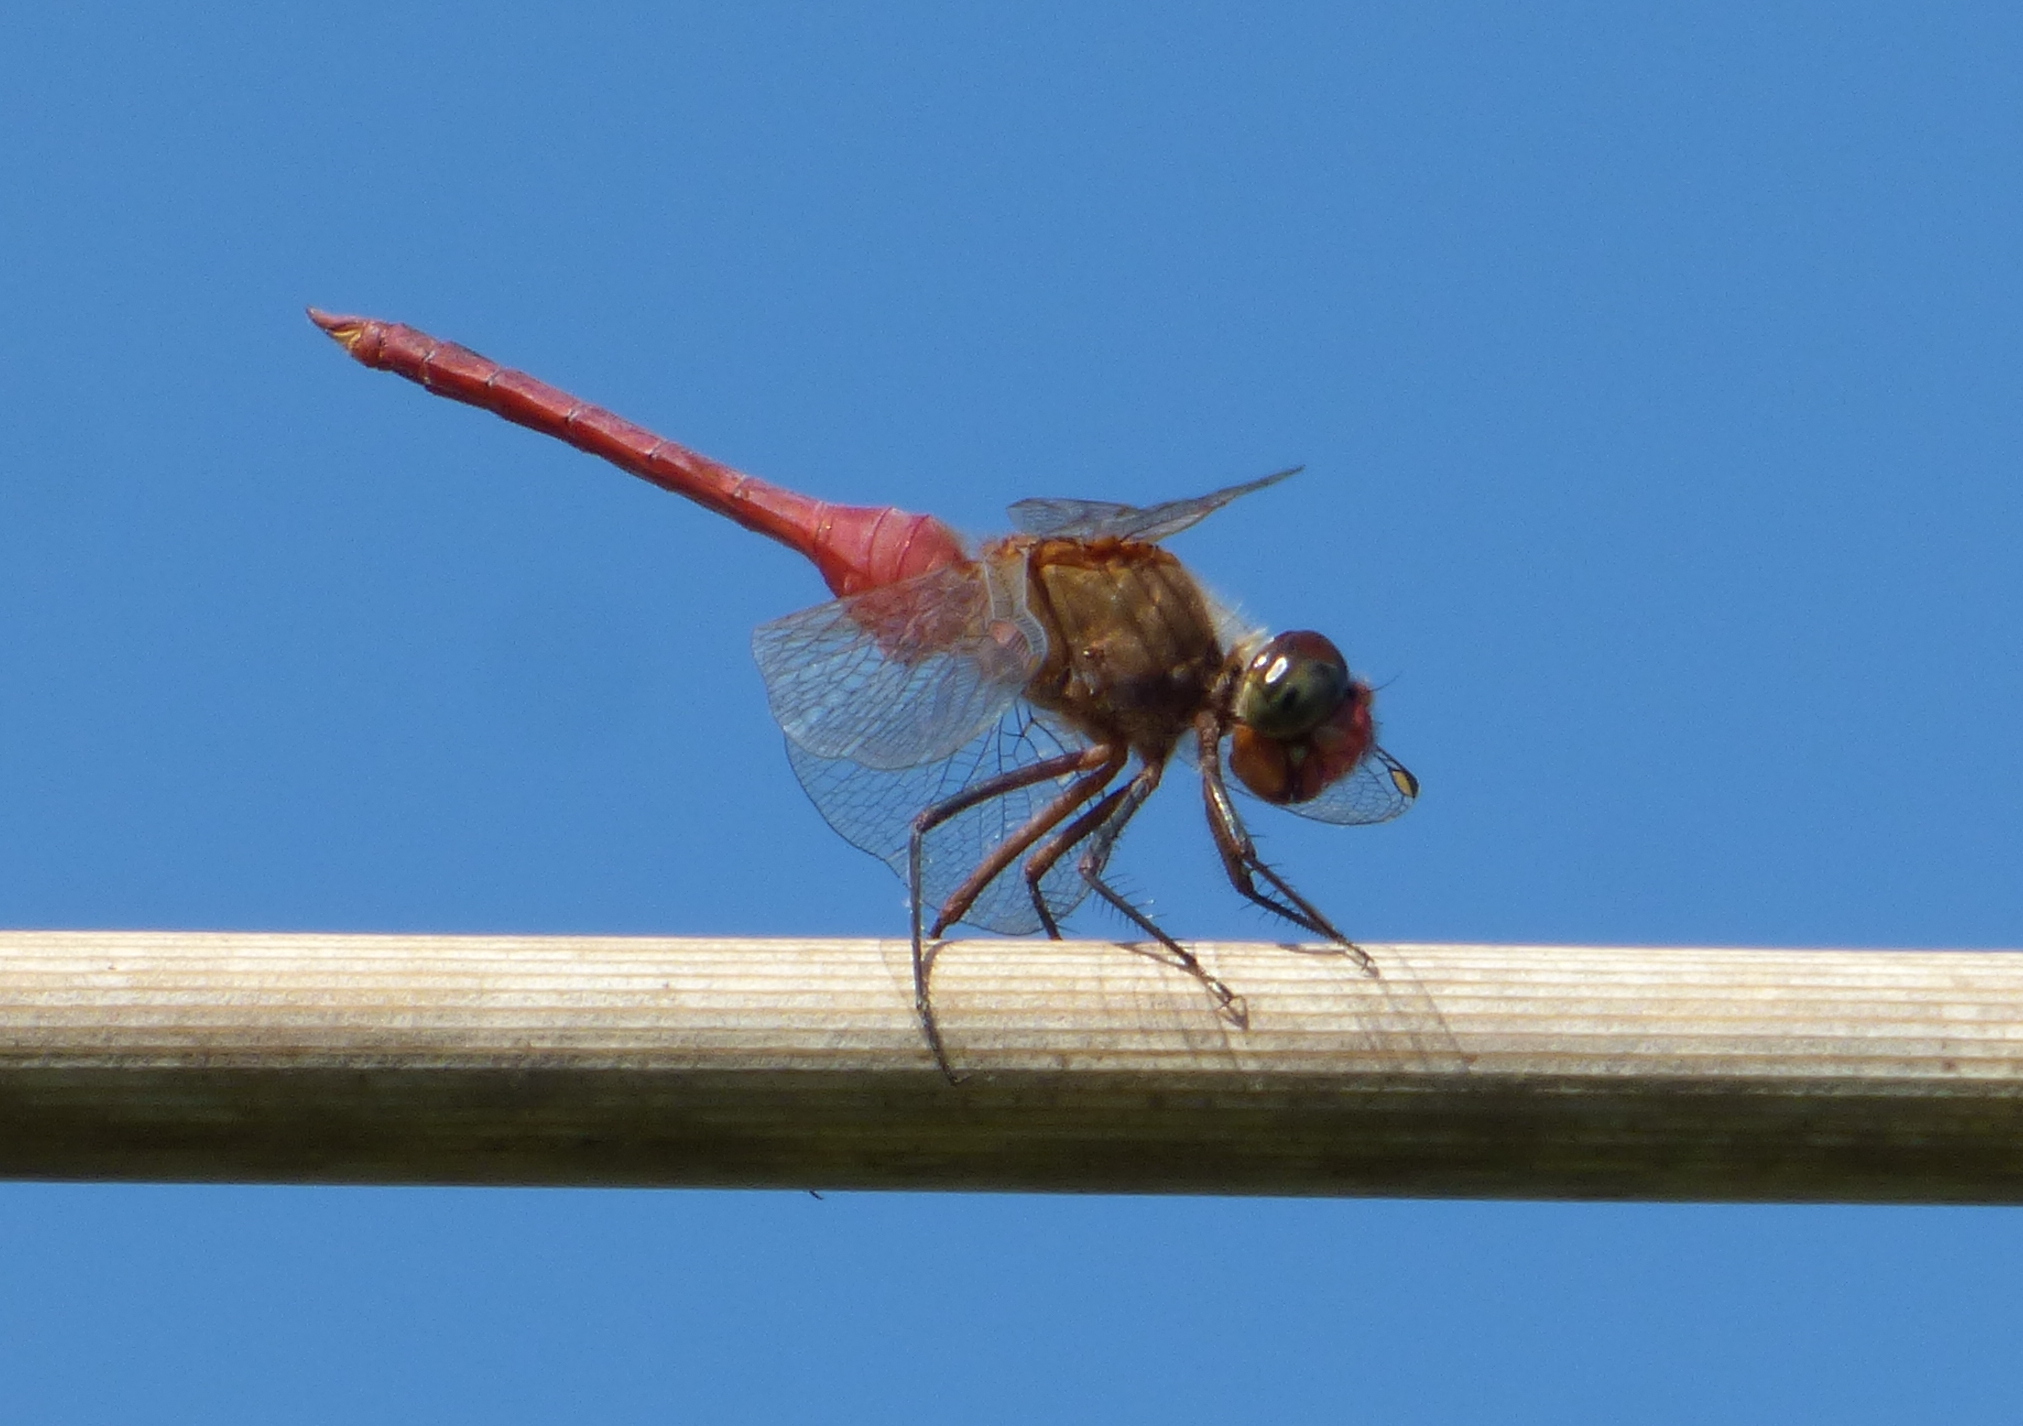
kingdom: Animalia
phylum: Arthropoda
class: Insecta
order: Odonata
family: Libellulidae
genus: Brachymesia
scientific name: Brachymesia furcata
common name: Red-taled pennant
